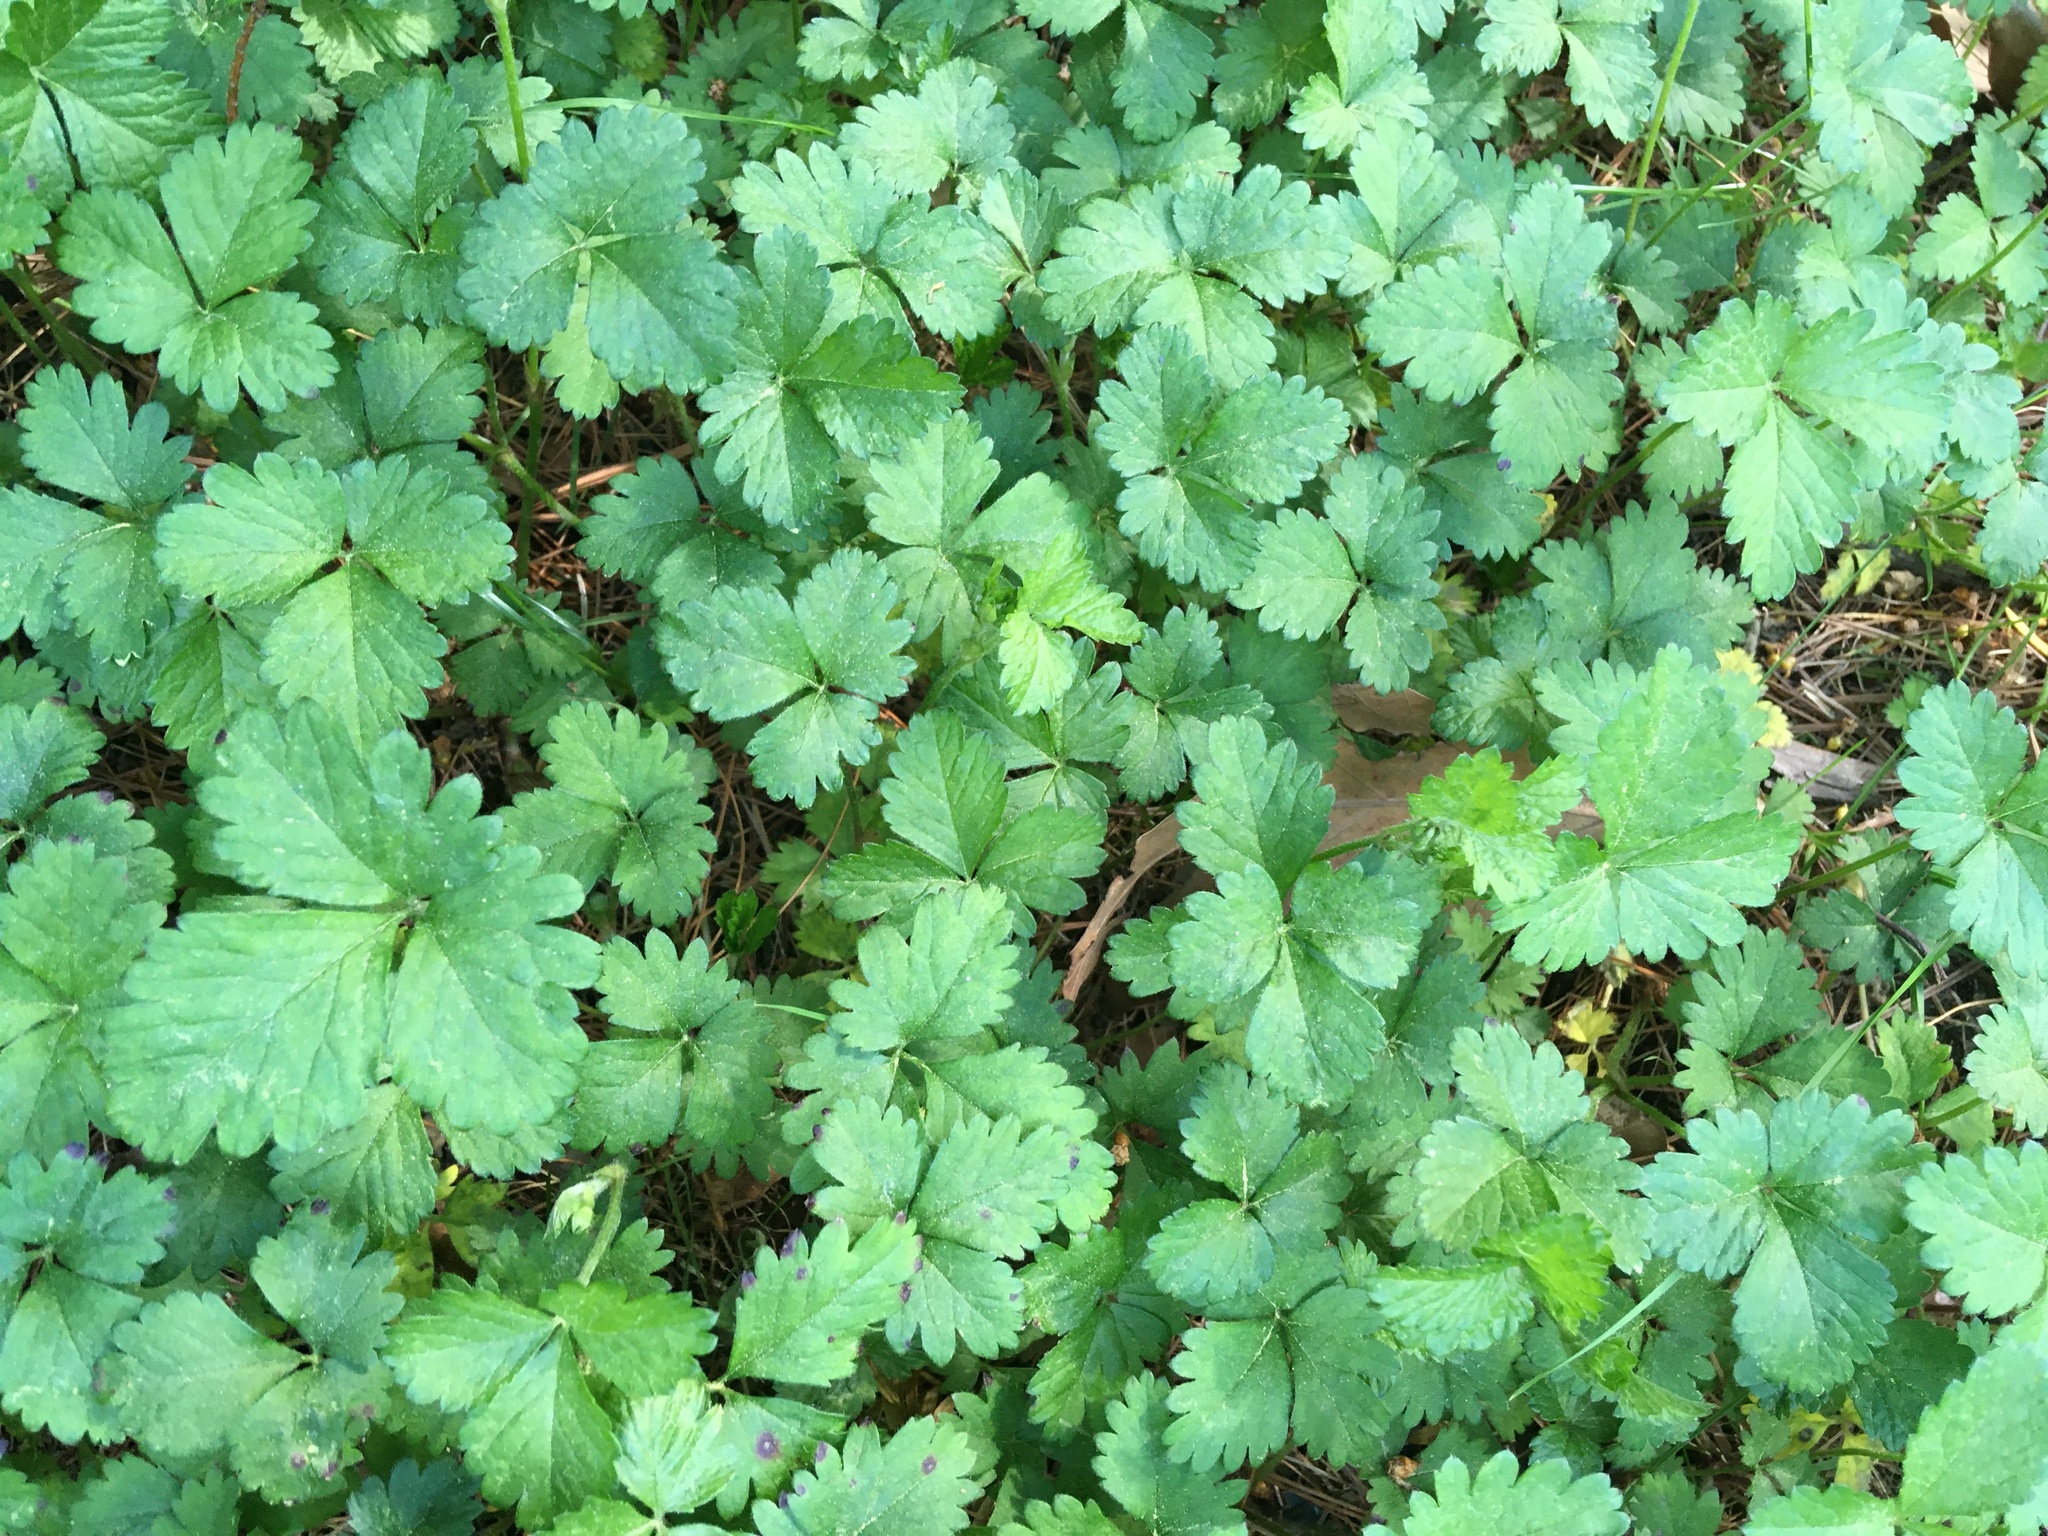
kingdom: Plantae
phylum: Tracheophyta
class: Magnoliopsida
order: Rosales
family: Rosaceae
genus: Potentilla
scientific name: Potentilla indica
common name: Yellow-flowered strawberry
